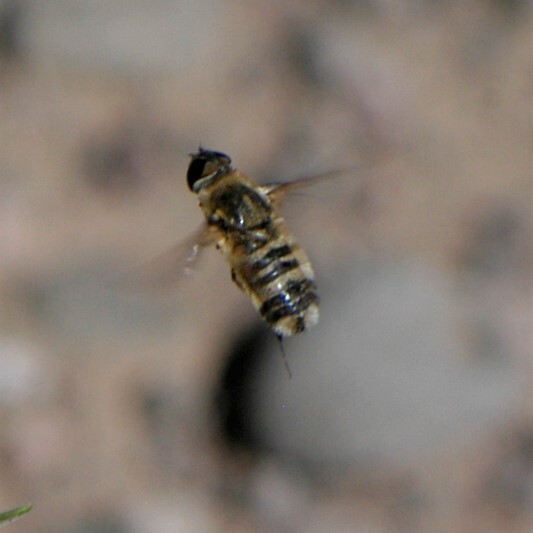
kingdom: Animalia
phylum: Arthropoda
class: Insecta
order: Diptera
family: Bombyliidae
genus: Villa
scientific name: Villa
